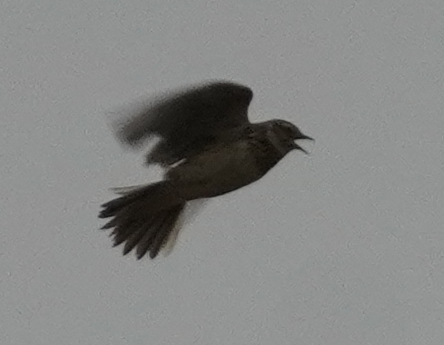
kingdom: Animalia
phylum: Chordata
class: Aves
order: Passeriformes
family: Alaudidae
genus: Alauda
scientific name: Alauda arvensis
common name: Eurasian skylark
